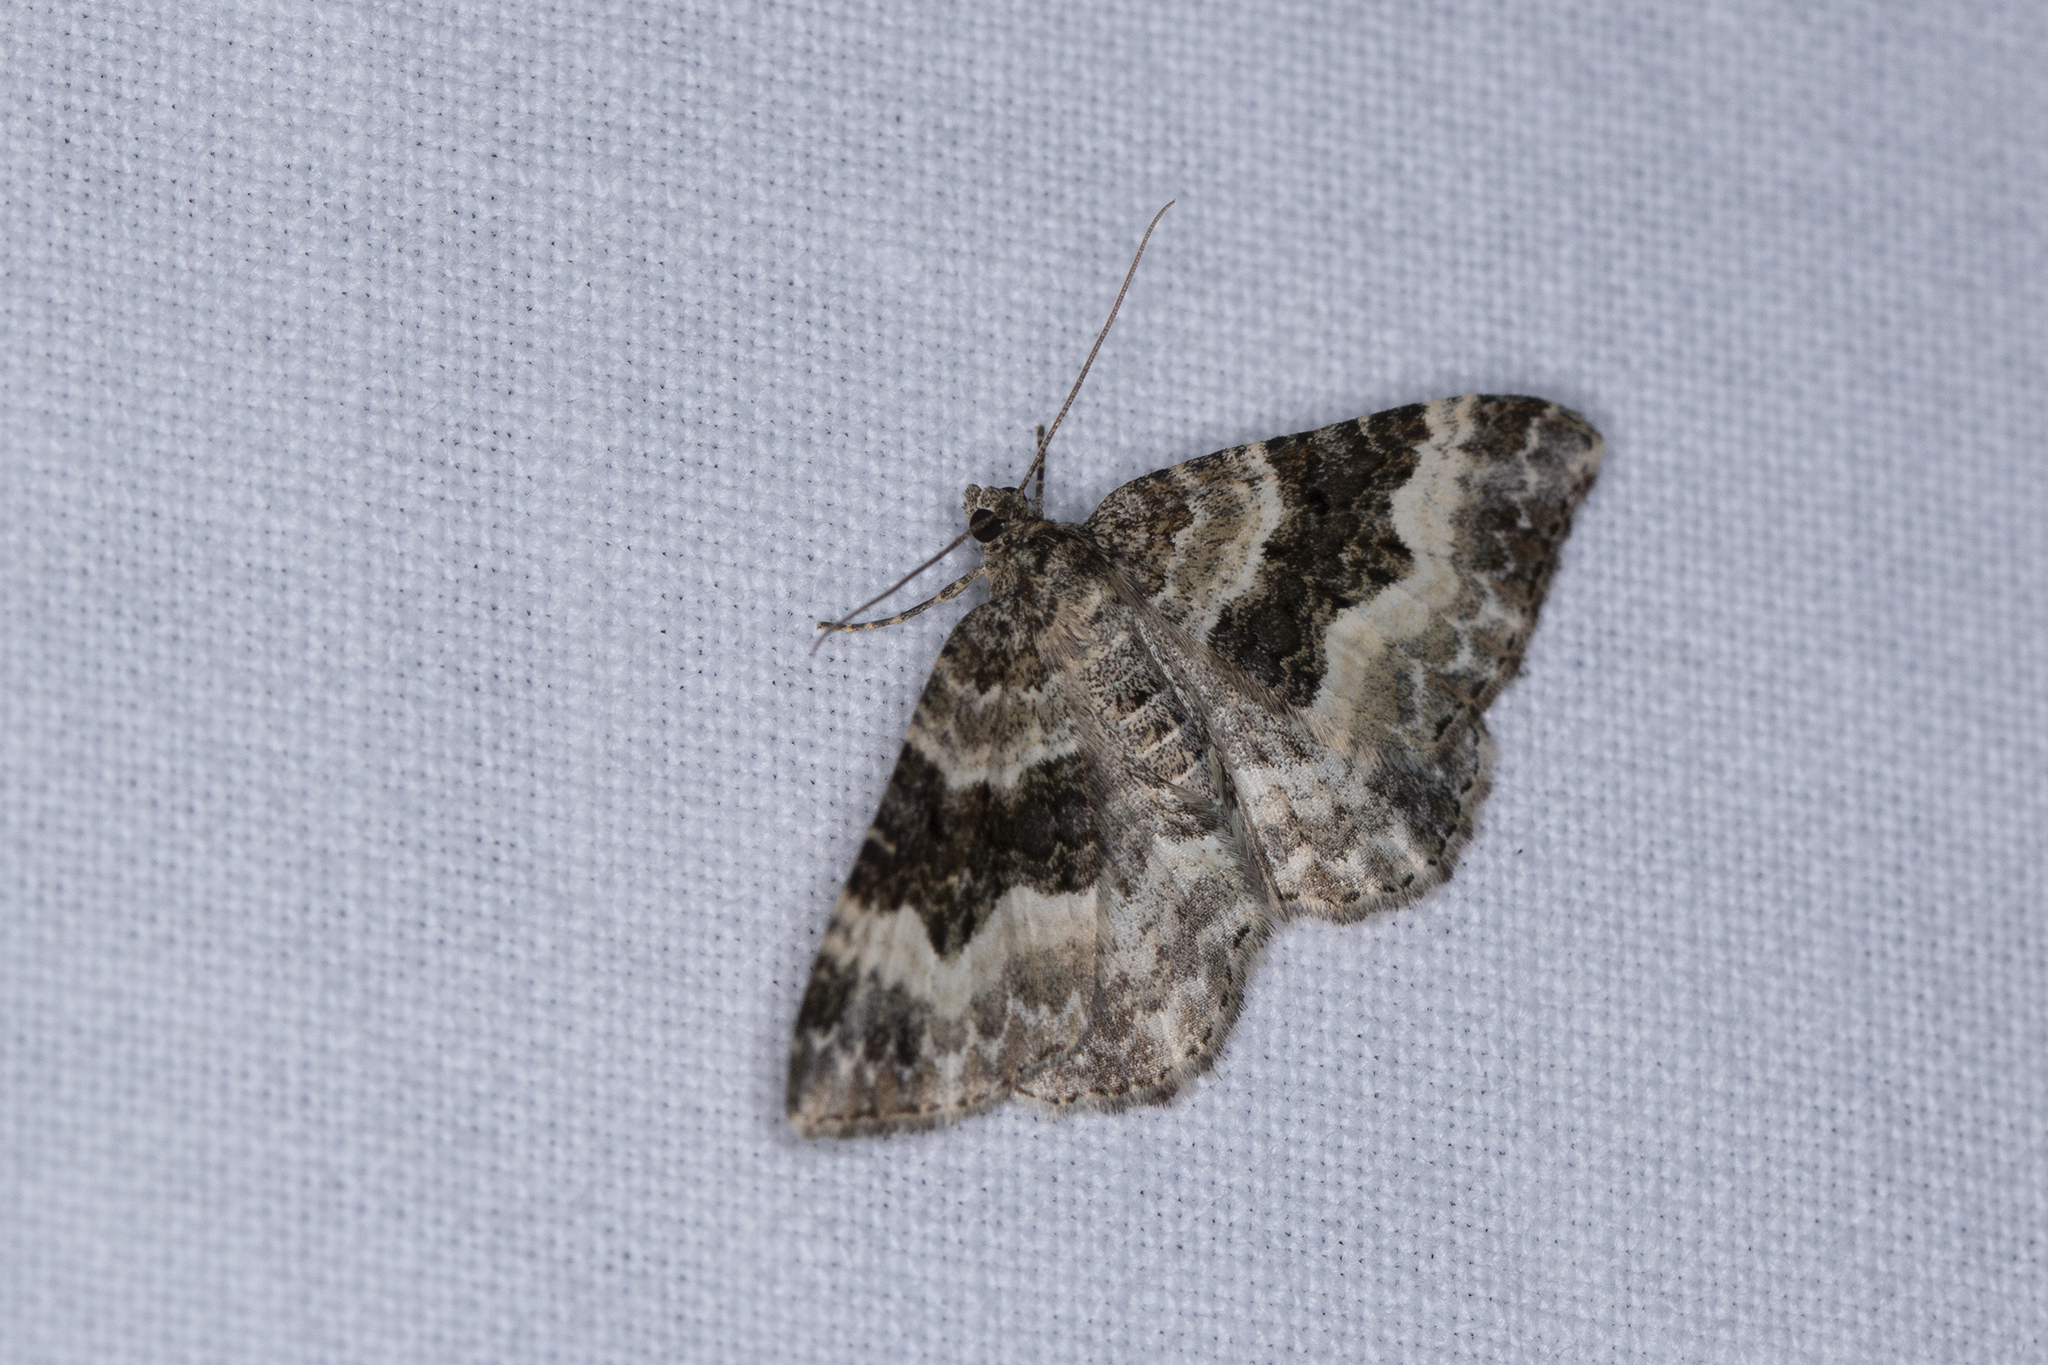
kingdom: Animalia
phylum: Arthropoda
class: Insecta
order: Lepidoptera
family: Geometridae
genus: Epirrhoe
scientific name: Epirrhoe alternata
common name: Common carpet
